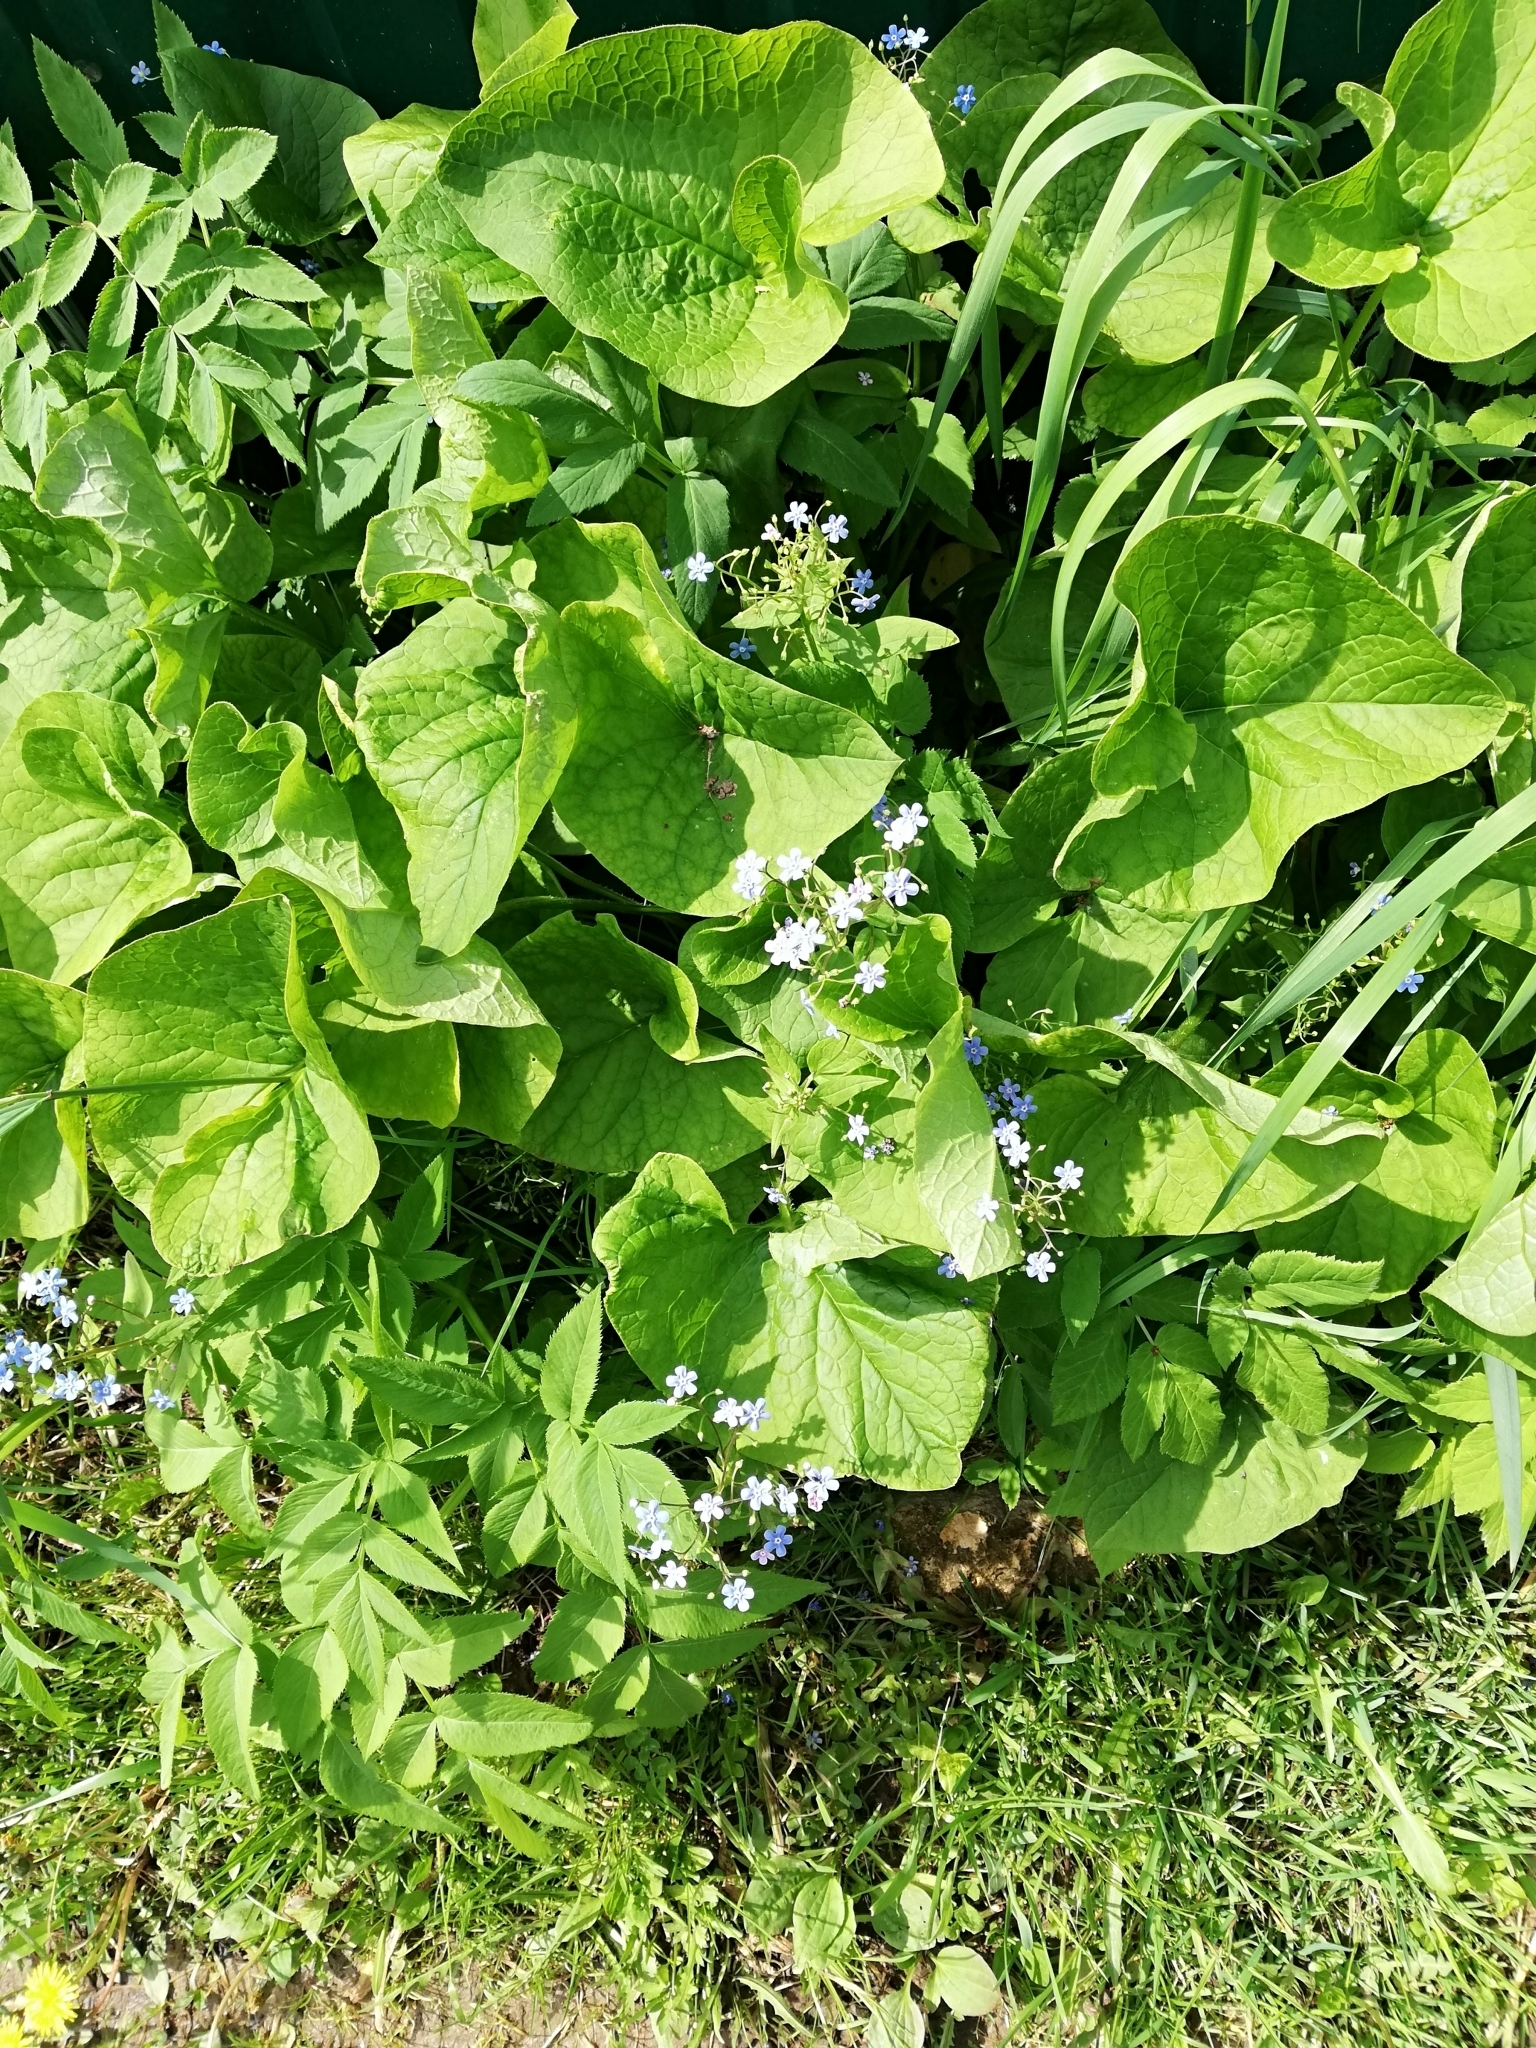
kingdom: Plantae
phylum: Tracheophyta
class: Magnoliopsida
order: Boraginales
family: Boraginaceae
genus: Brunnera
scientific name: Brunnera sibirica
